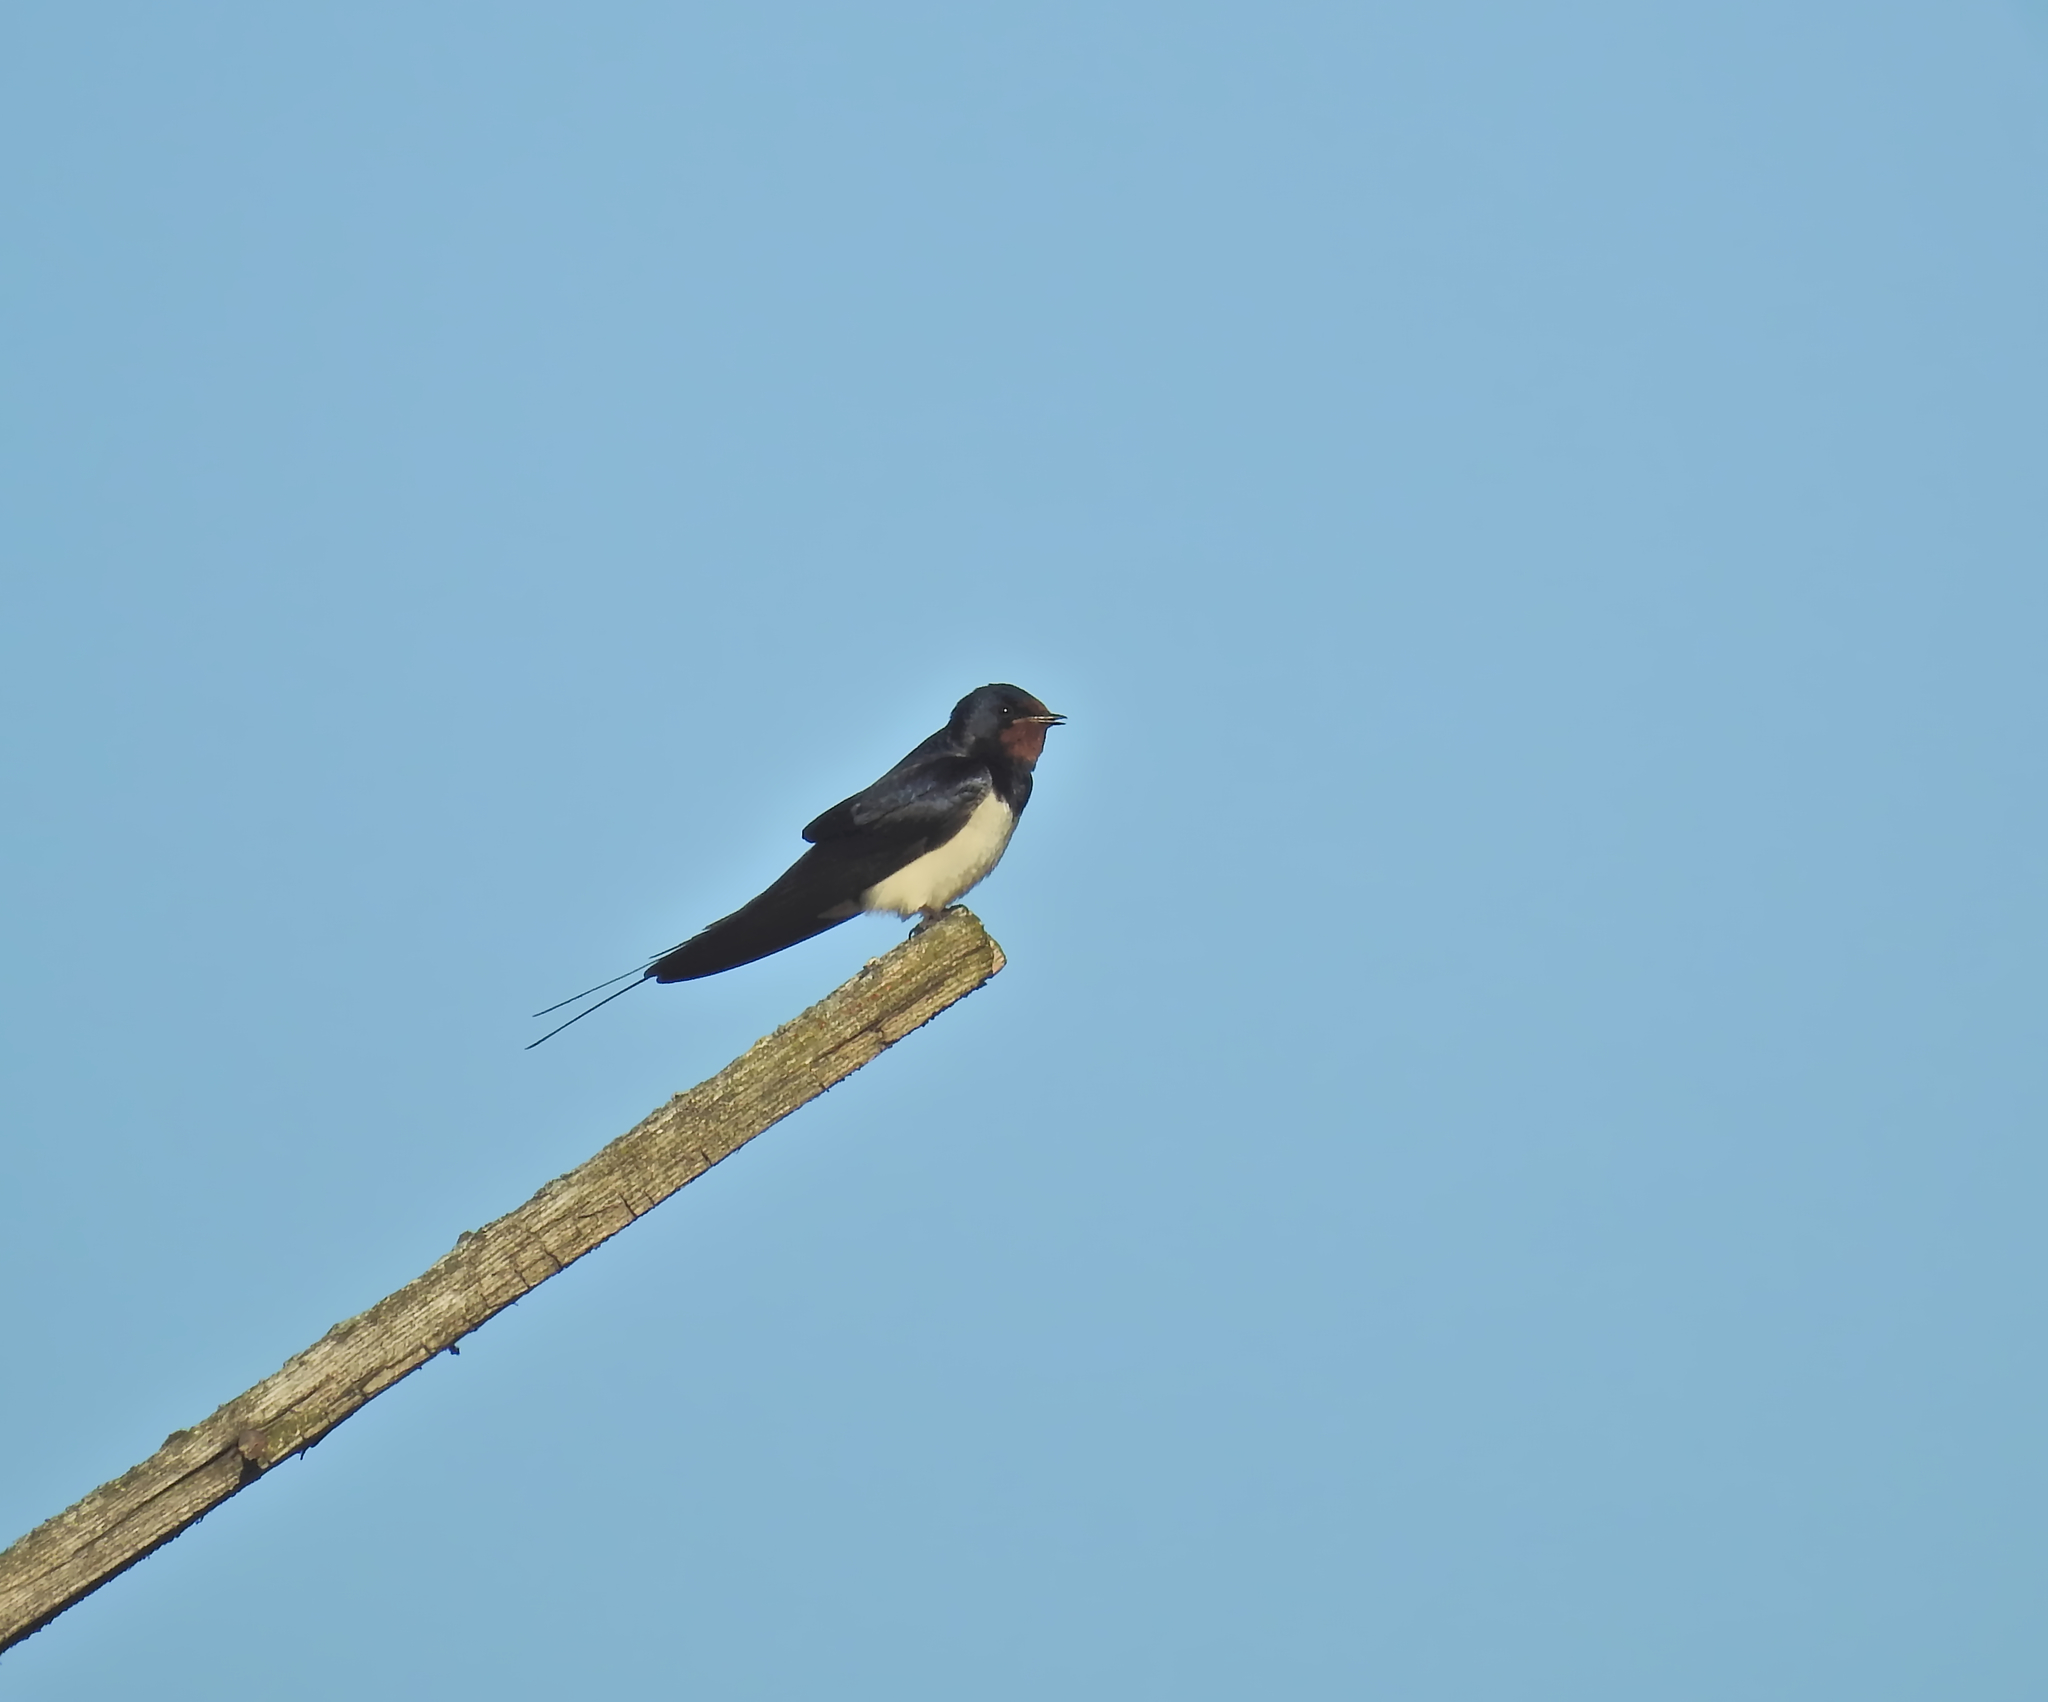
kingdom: Animalia
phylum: Chordata
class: Aves
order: Passeriformes
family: Hirundinidae
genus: Hirundo
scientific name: Hirundo rustica
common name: Barn swallow
